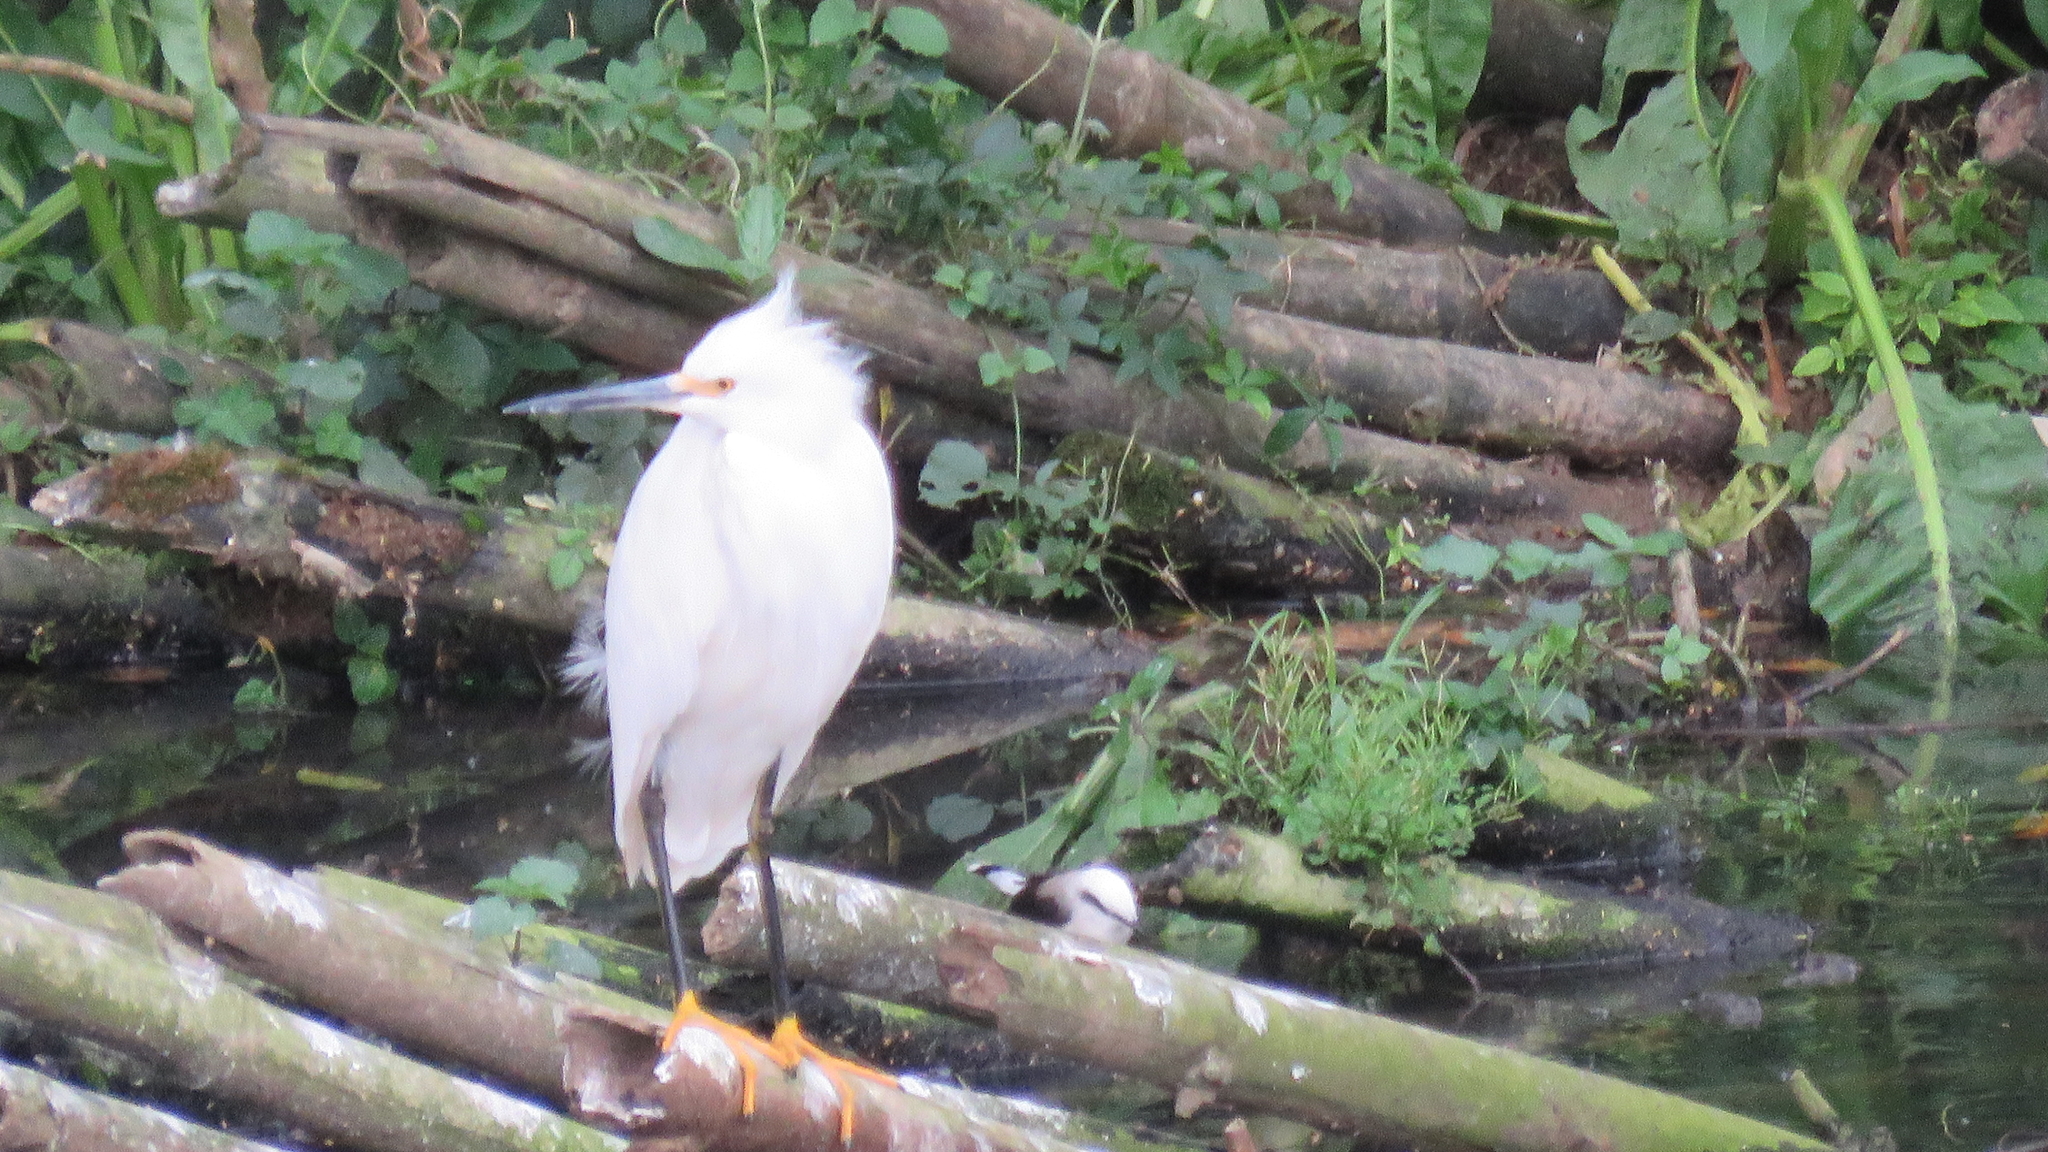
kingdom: Animalia
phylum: Chordata
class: Aves
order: Pelecaniformes
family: Ardeidae
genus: Egretta
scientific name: Egretta thula
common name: Snowy egret
